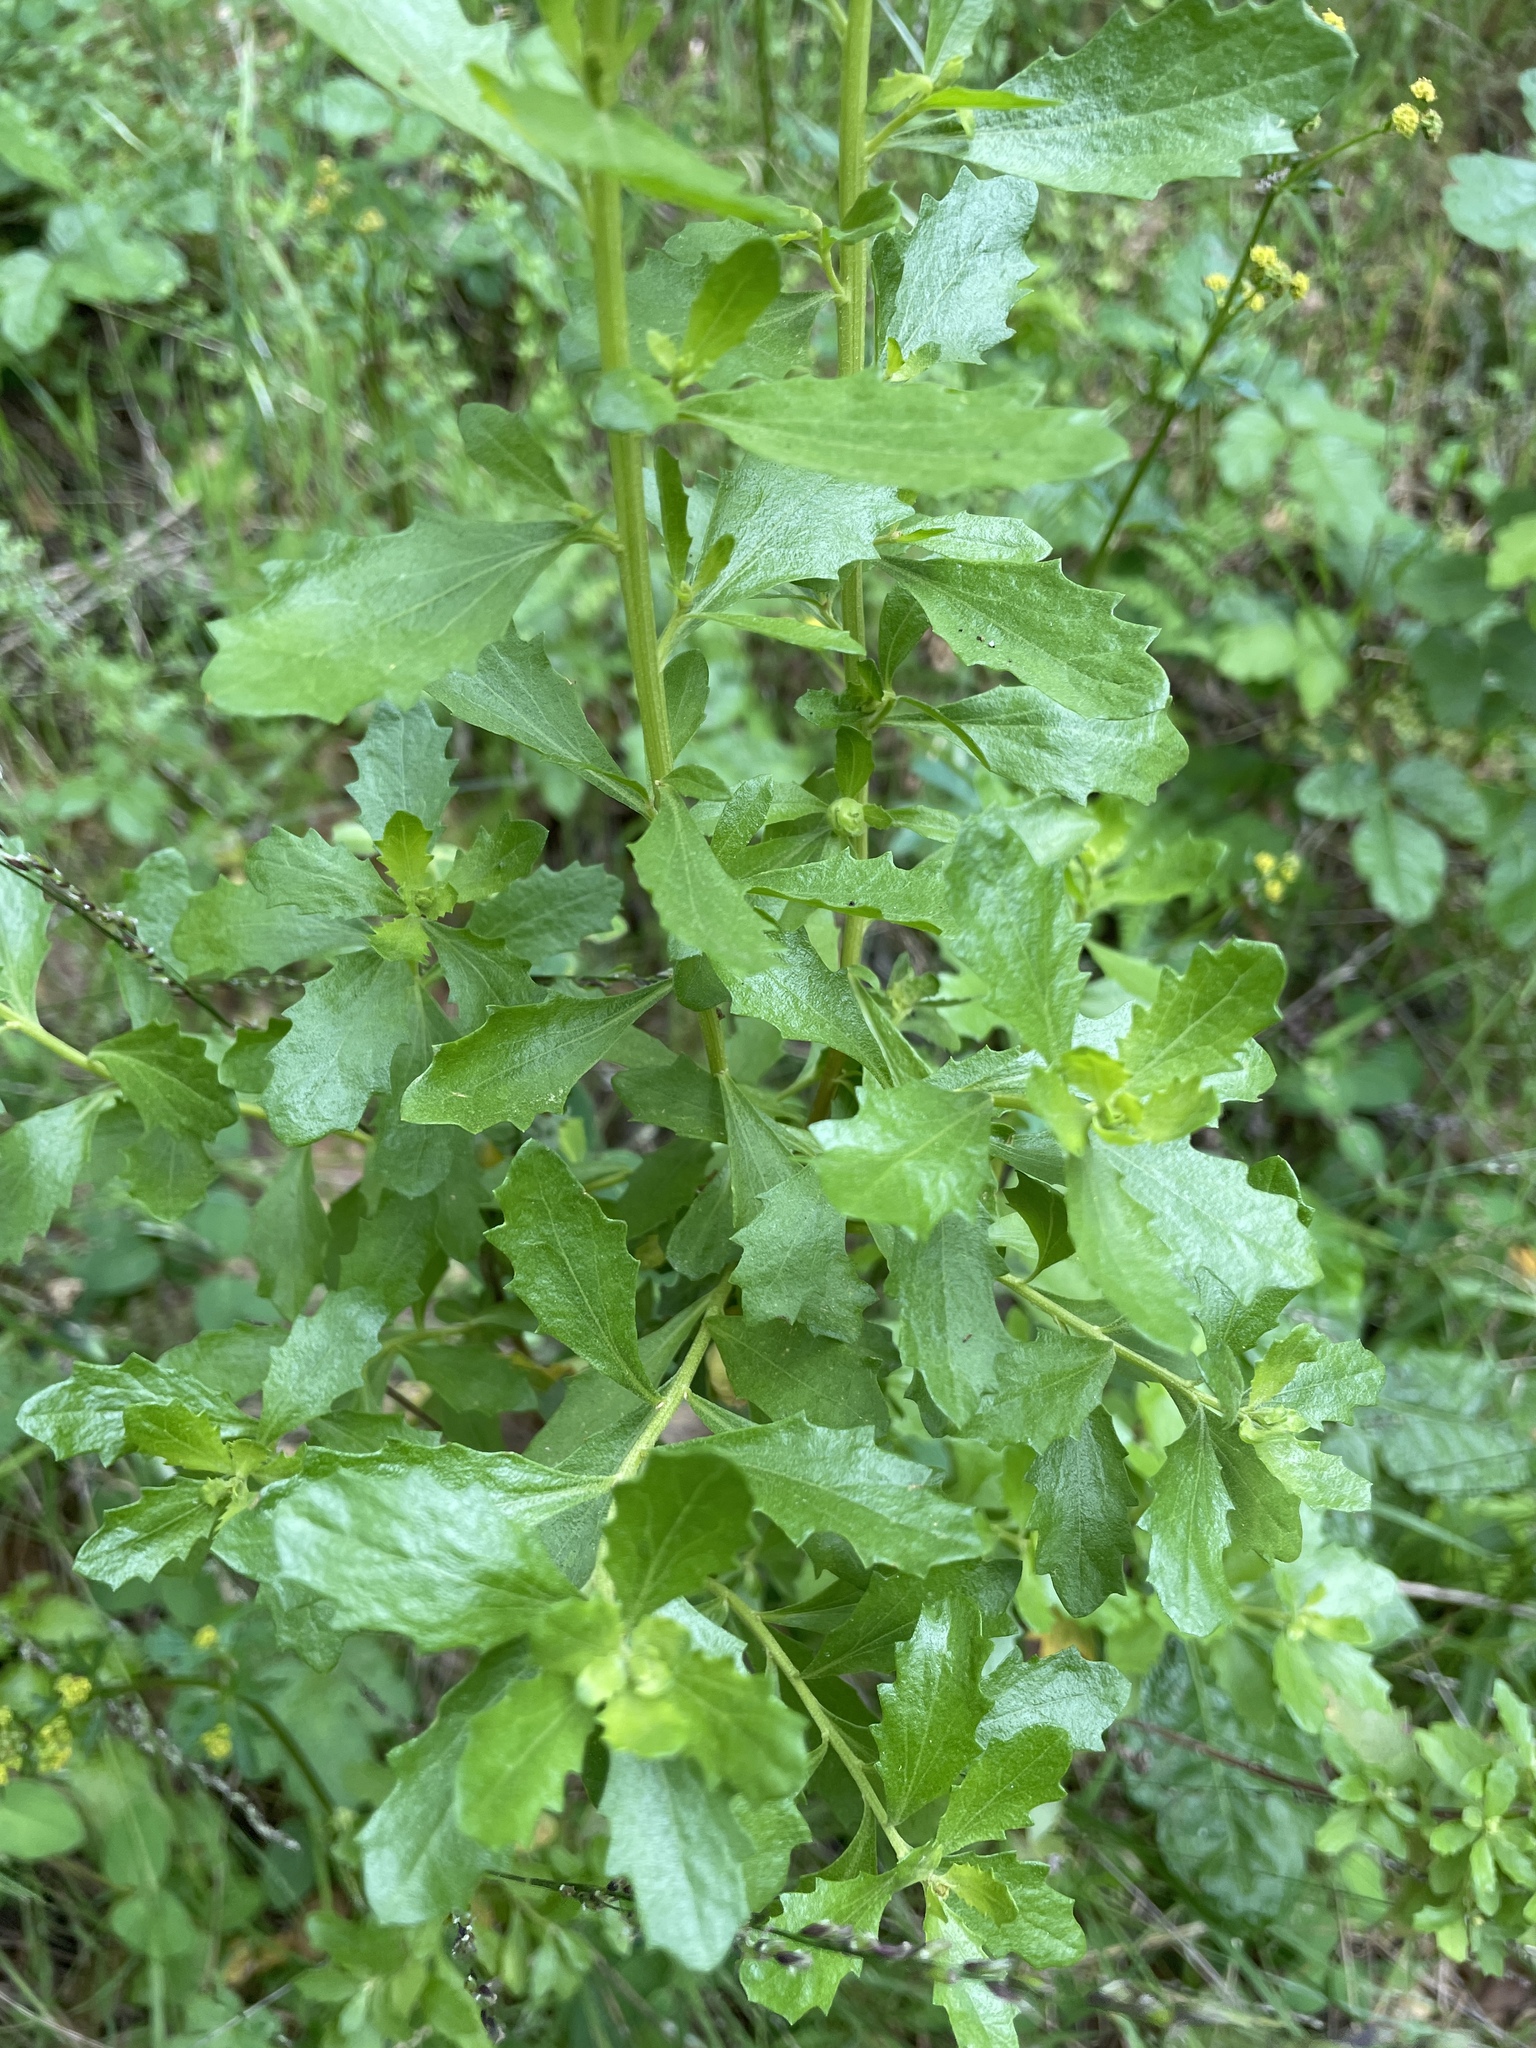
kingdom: Plantae
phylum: Tracheophyta
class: Magnoliopsida
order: Asterales
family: Asteraceae
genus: Baccharis
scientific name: Baccharis pilularis
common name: Coyotebrush
